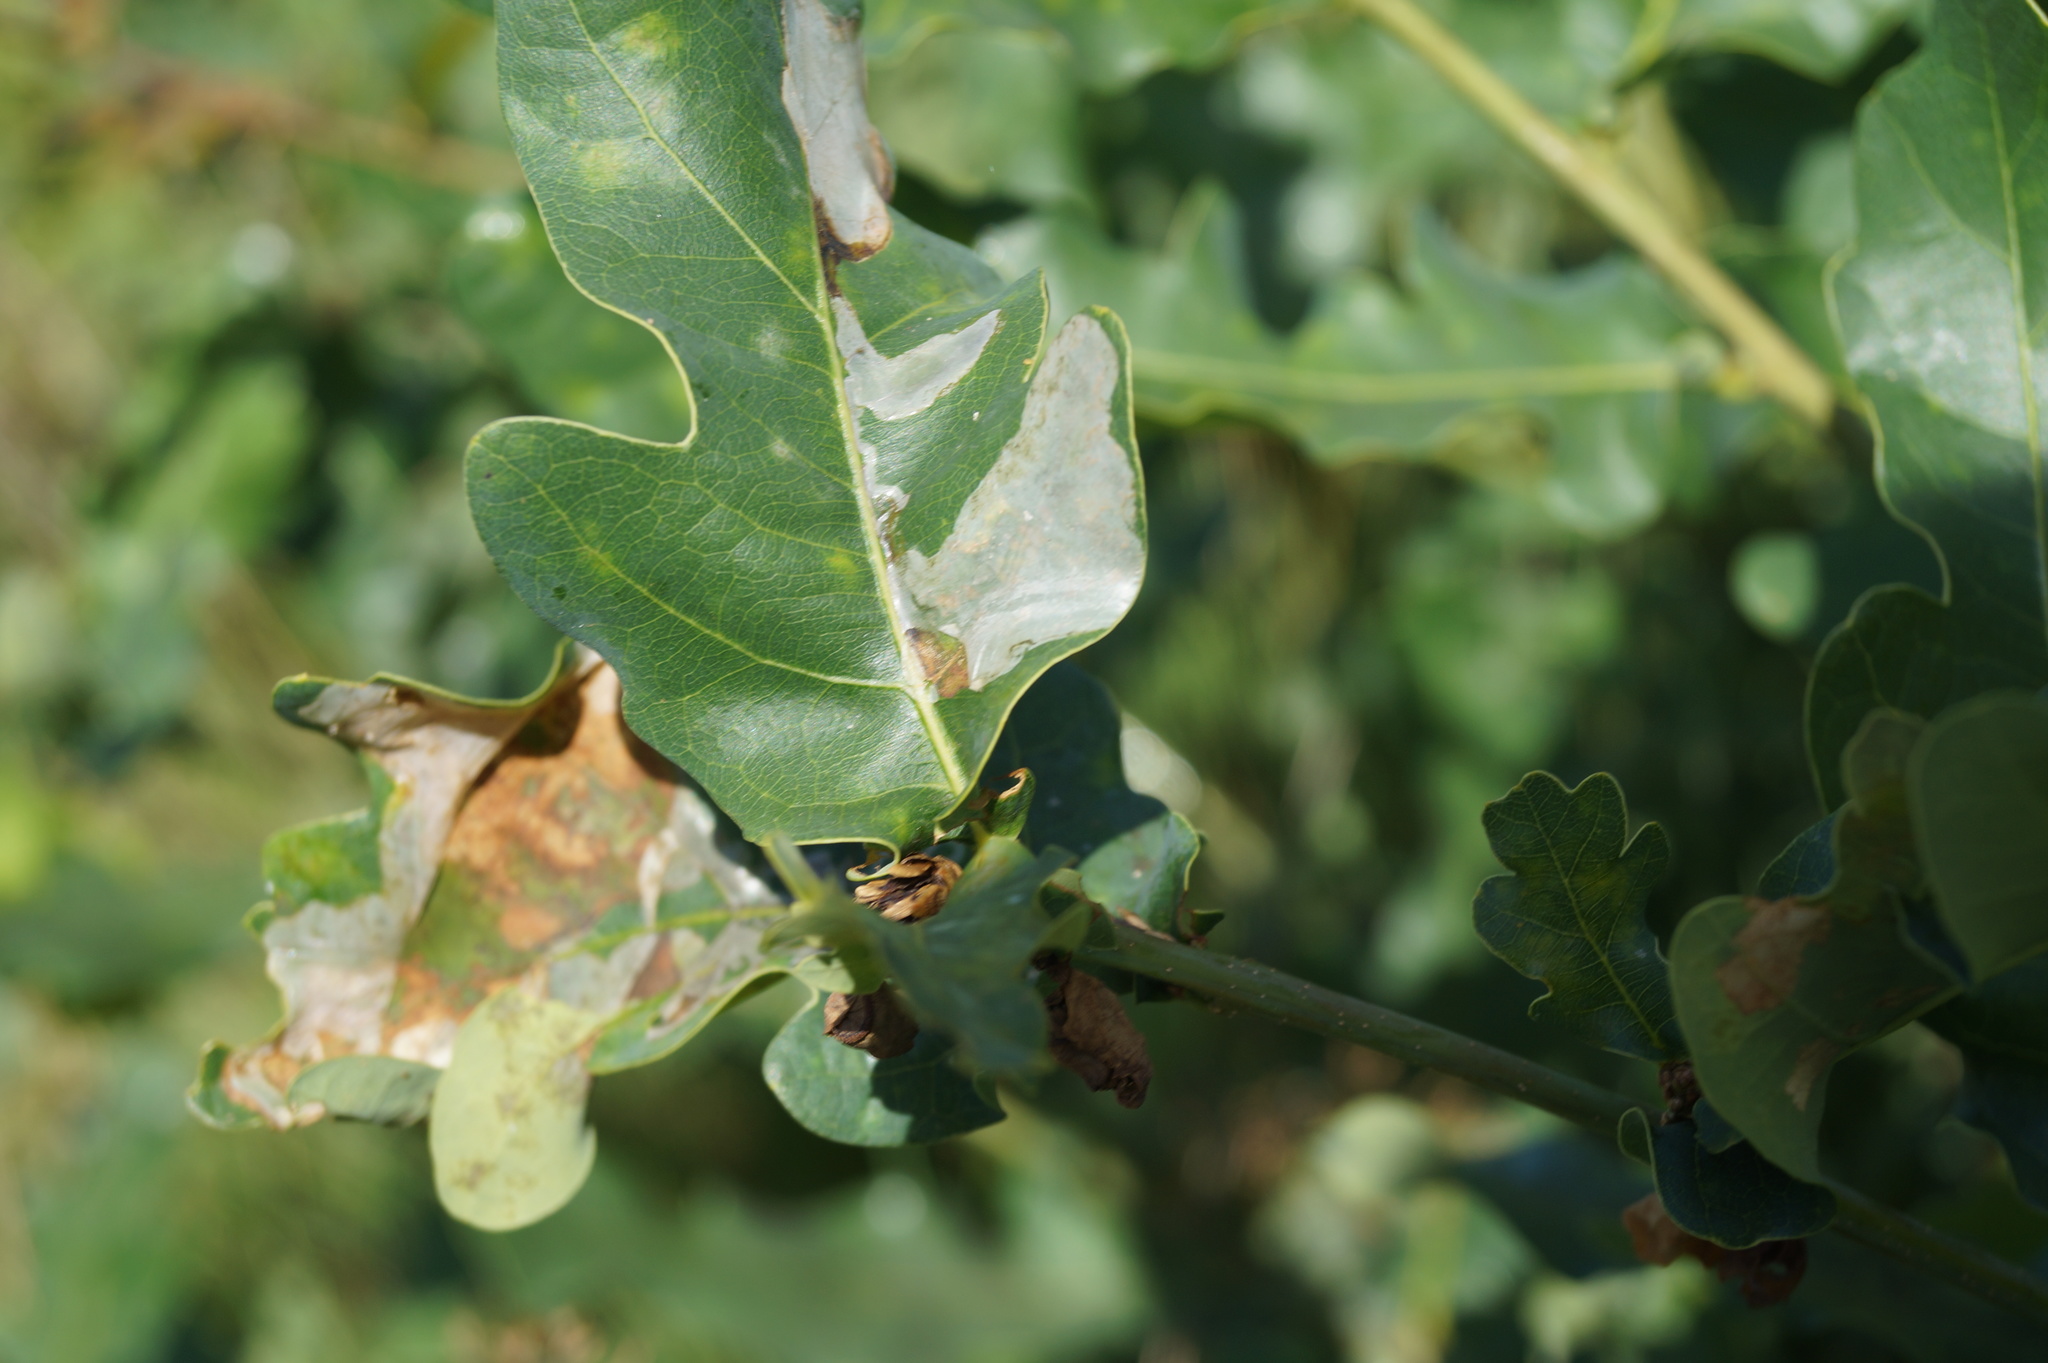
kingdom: Animalia
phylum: Arthropoda
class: Insecta
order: Lepidoptera
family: Gracillariidae
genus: Acrocercops
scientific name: Acrocercops brongniardella
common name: Brown oak slender
